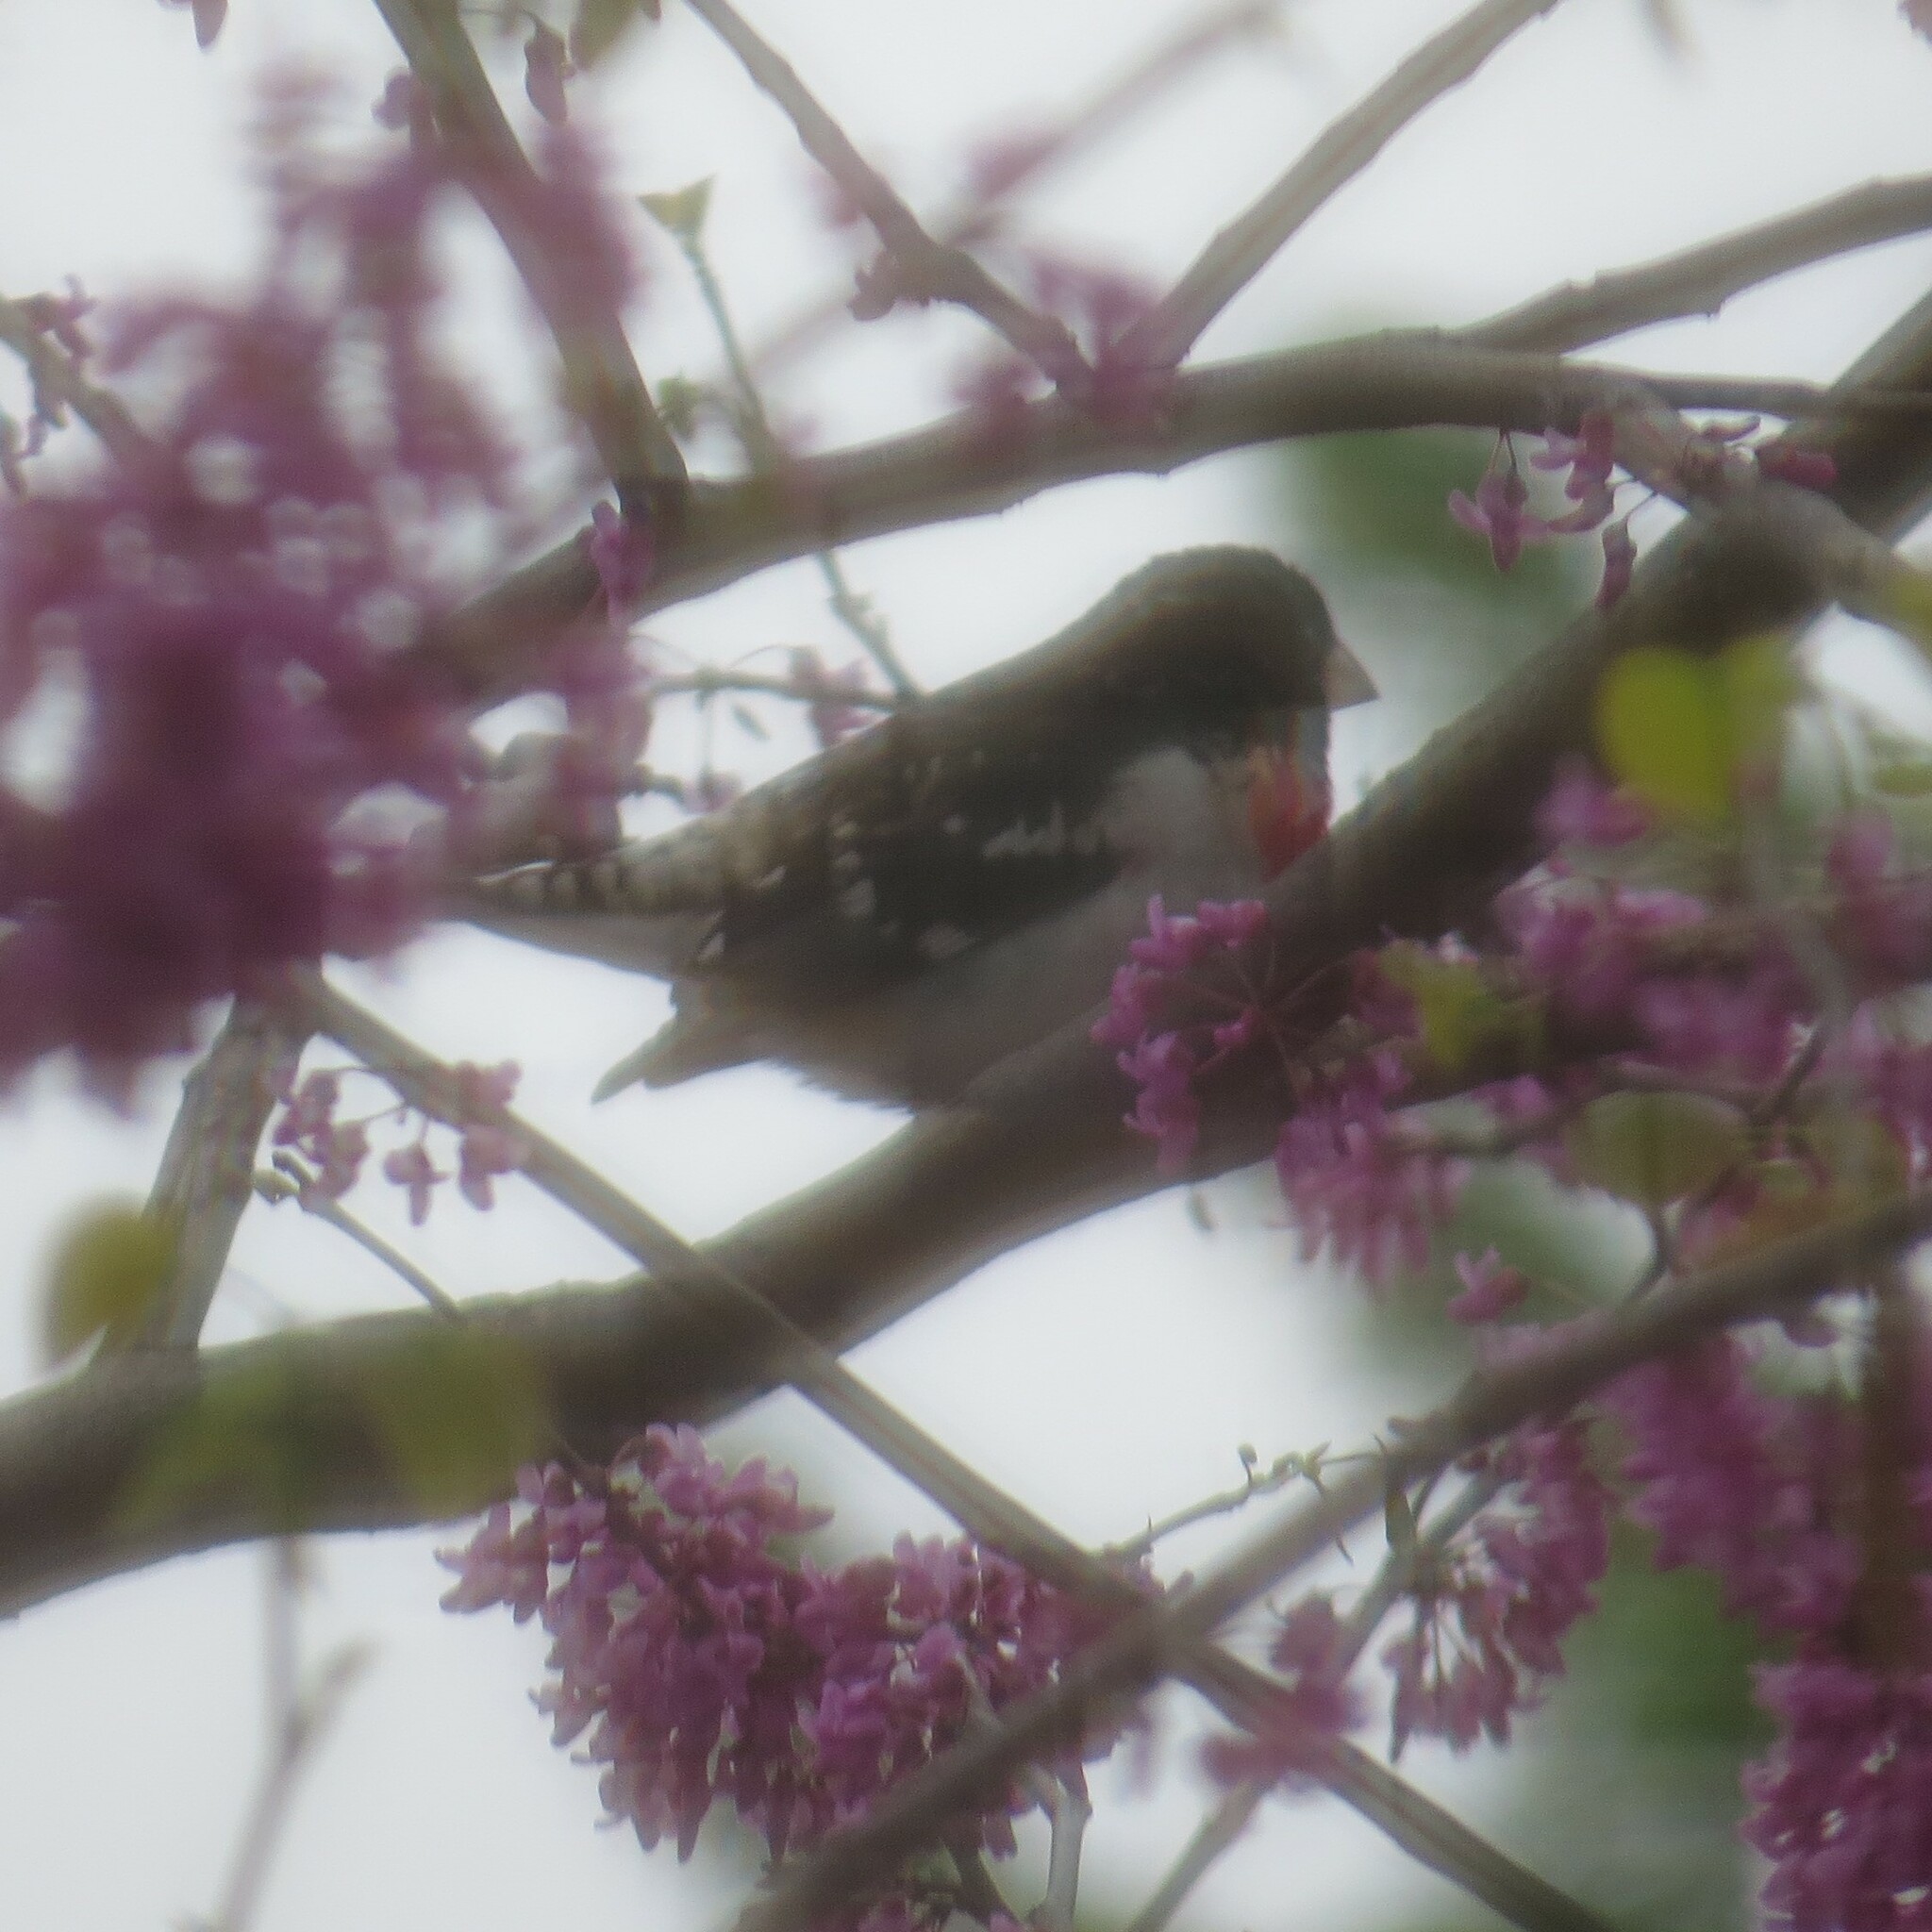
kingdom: Animalia
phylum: Chordata
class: Aves
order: Passeriformes
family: Cardinalidae
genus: Pheucticus
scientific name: Pheucticus ludovicianus
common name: Rose-breasted grosbeak
